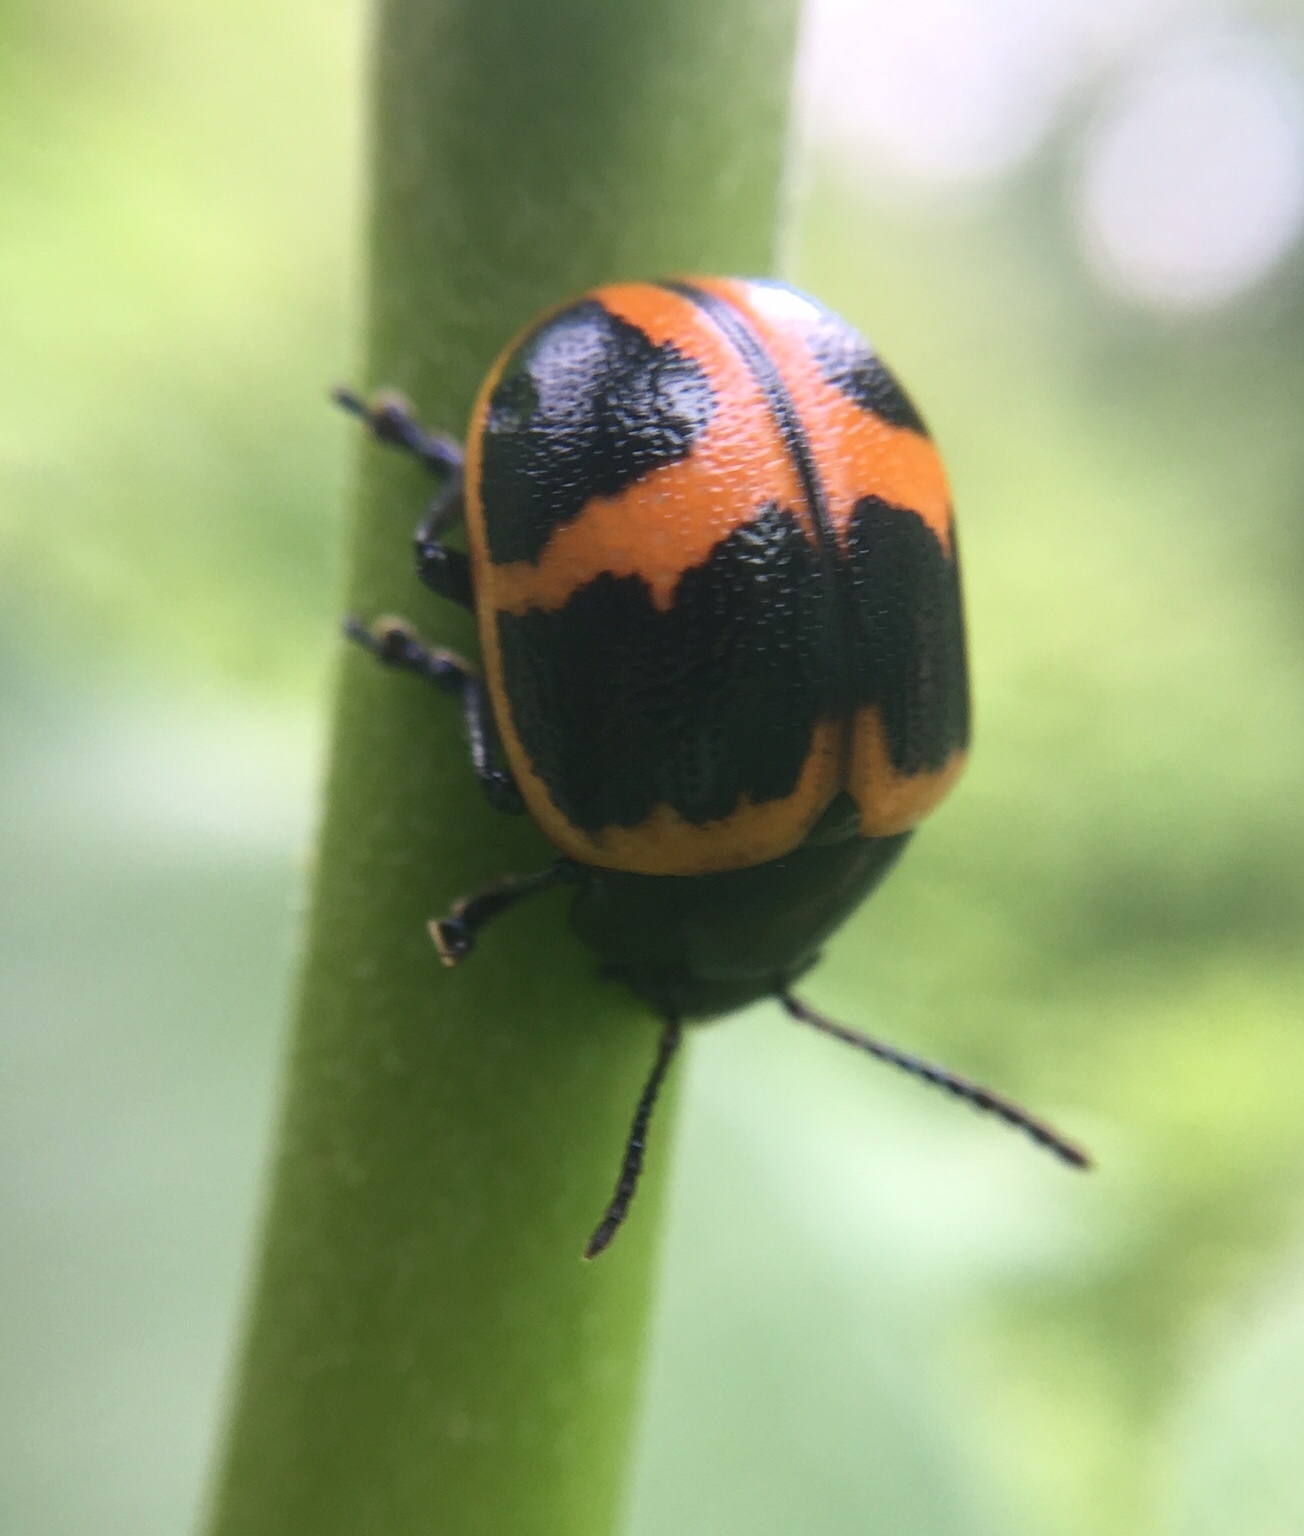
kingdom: Animalia
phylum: Arthropoda
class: Insecta
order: Coleoptera
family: Chrysomelidae
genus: Labidomera
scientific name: Labidomera clivicollis
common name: Swamp milkweed leaf beetle
